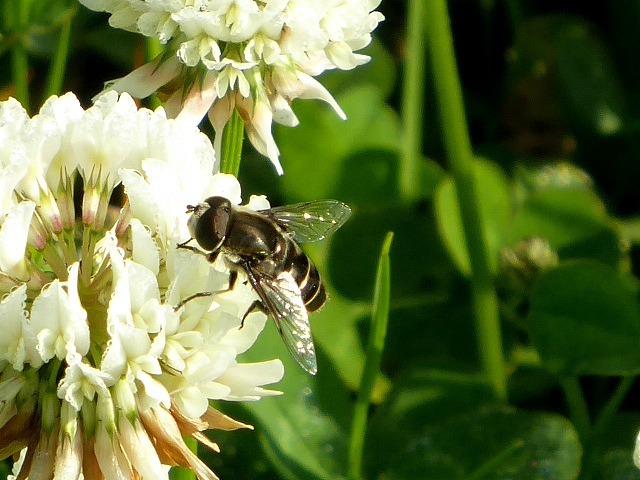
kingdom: Animalia
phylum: Arthropoda
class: Insecta
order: Diptera
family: Syrphidae
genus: Eristalis
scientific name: Eristalis dimidiata
